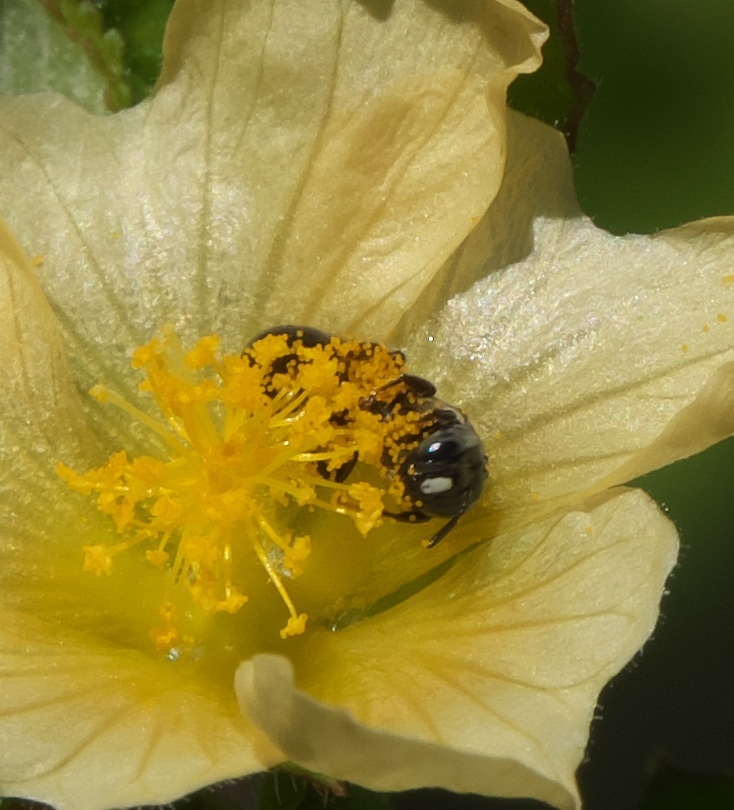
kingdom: Animalia
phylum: Arthropoda
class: Insecta
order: Hymenoptera
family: Apidae
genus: Ceratina
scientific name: Ceratina dentipes
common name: Small carpenter bee
